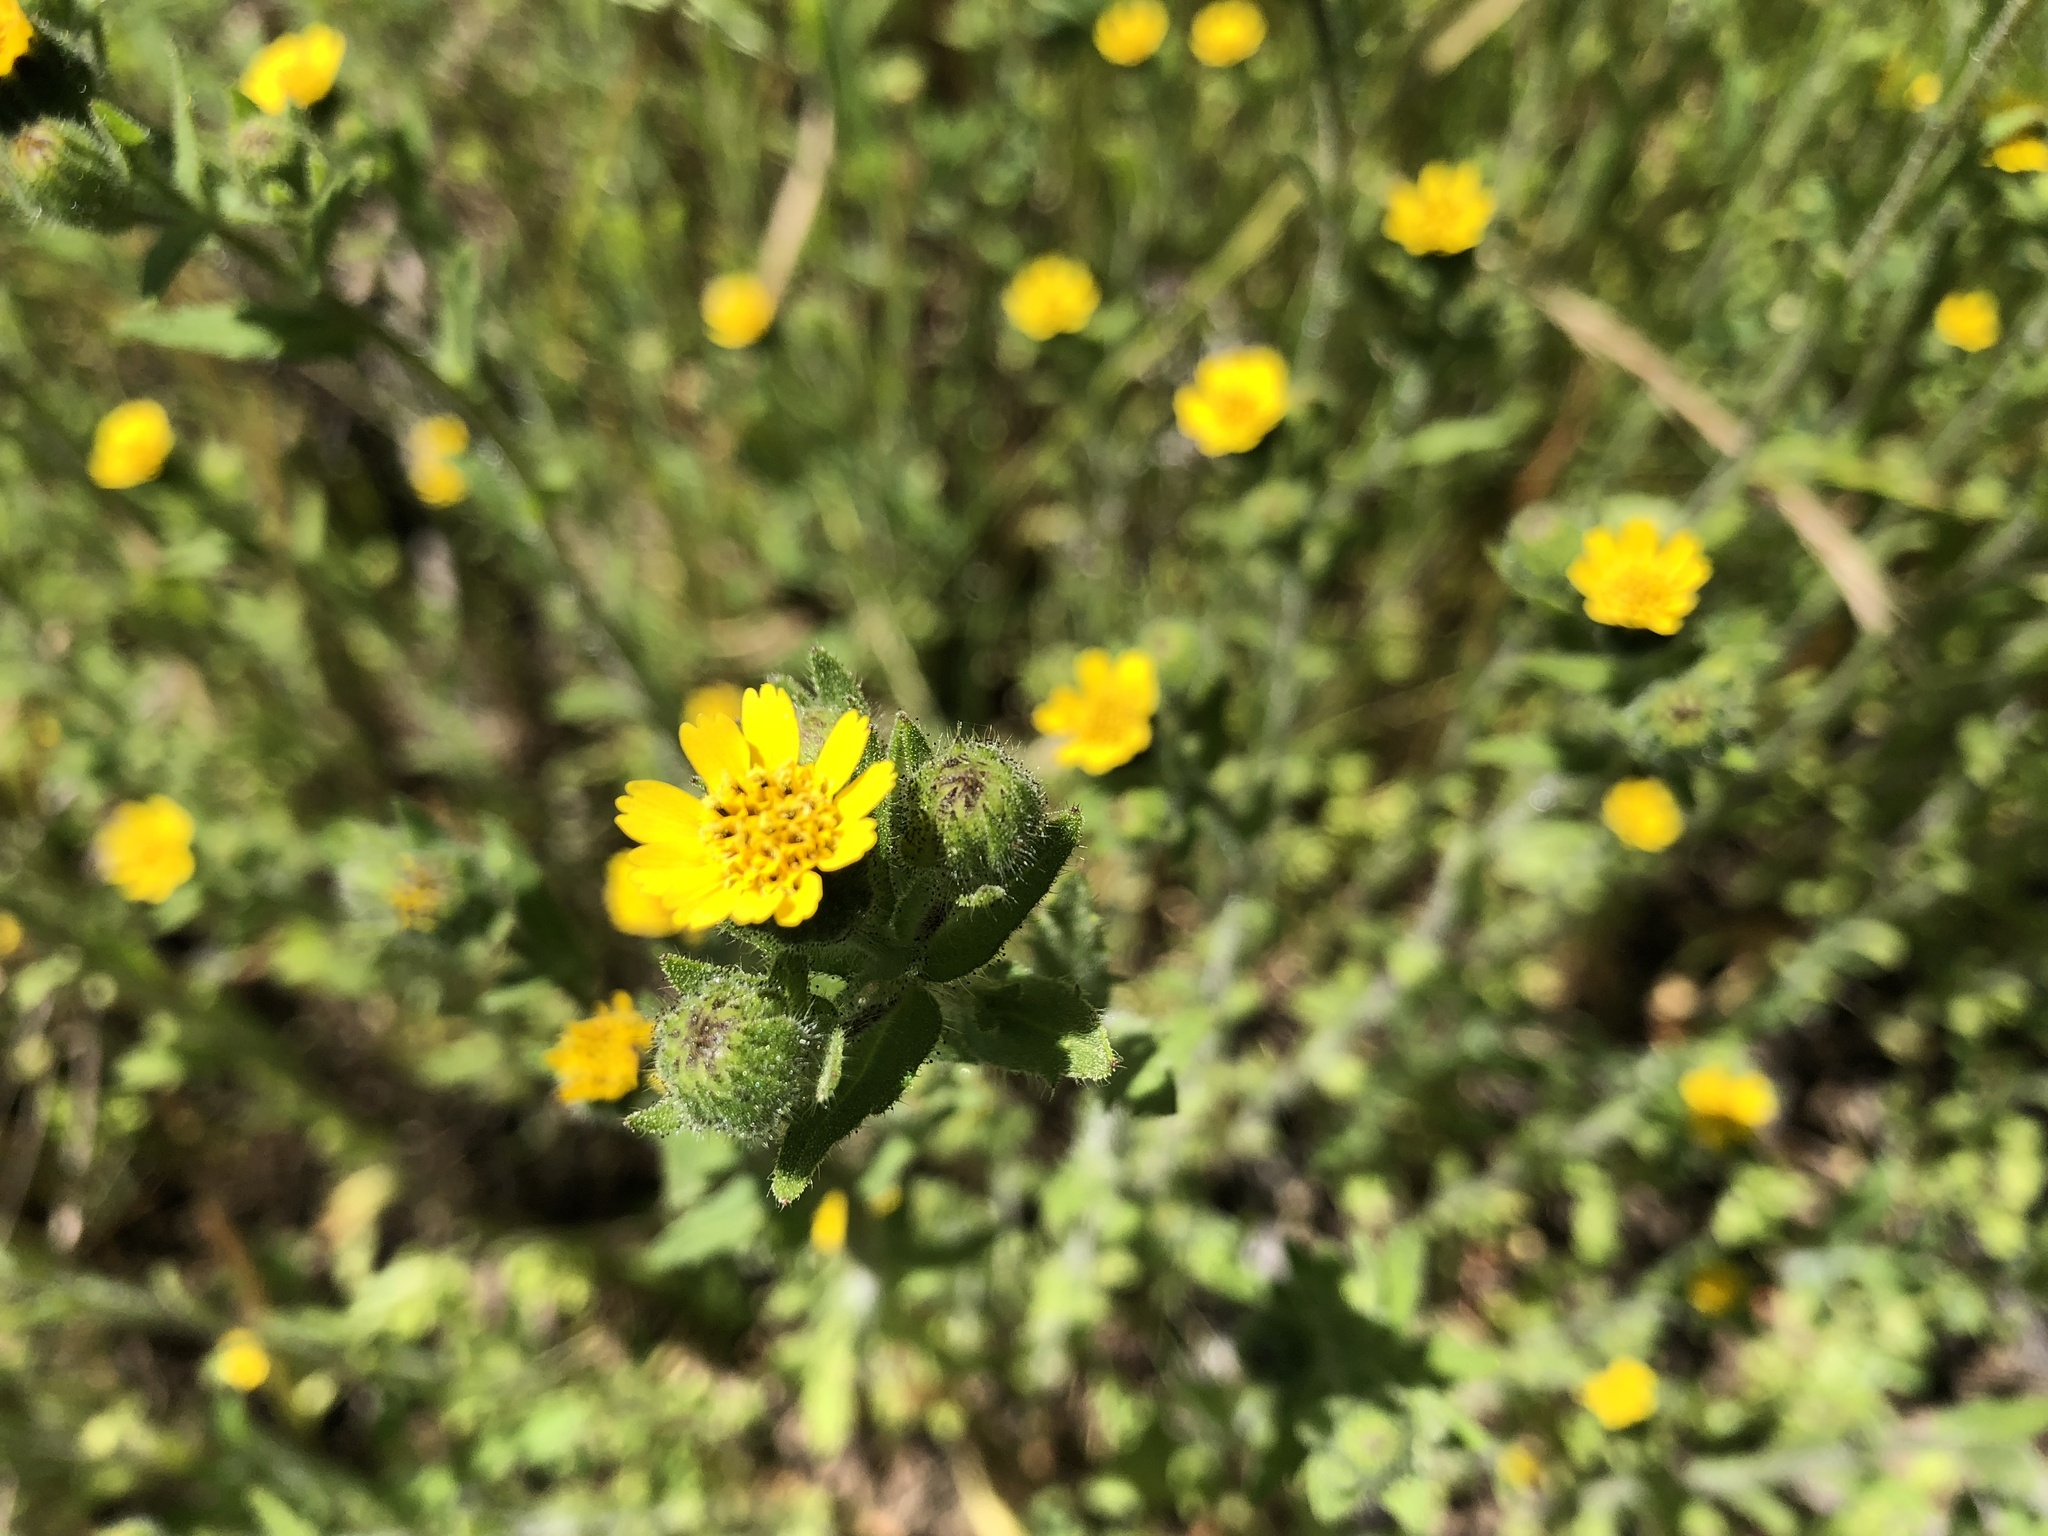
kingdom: Plantae
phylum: Tracheophyta
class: Magnoliopsida
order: Asterales
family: Asteraceae
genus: Layia
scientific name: Layia hieracioides
